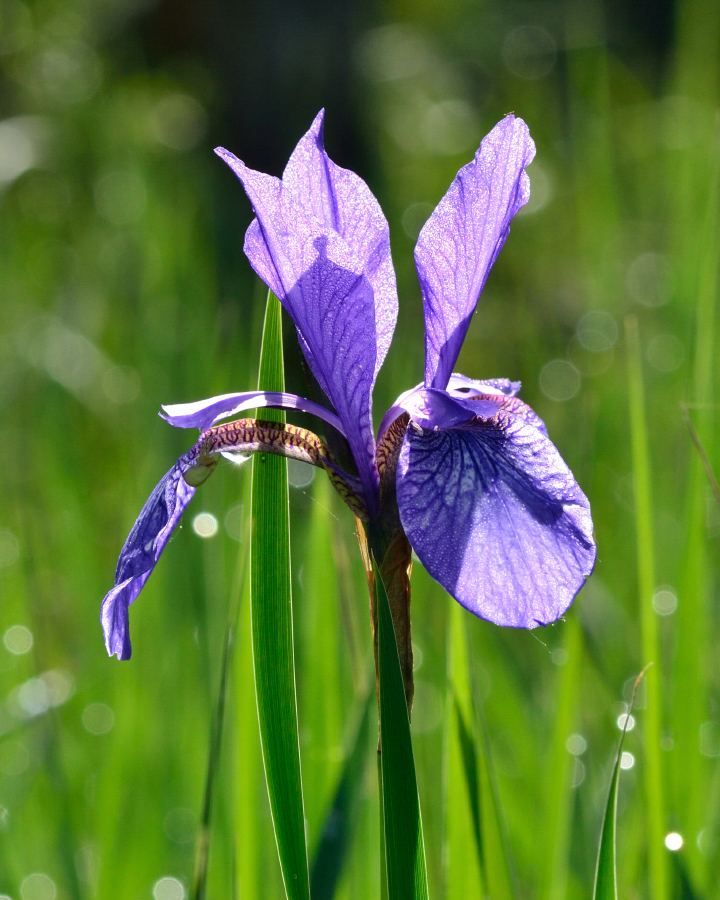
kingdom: Plantae
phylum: Tracheophyta
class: Liliopsida
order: Asparagales
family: Iridaceae
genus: Iris
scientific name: Iris sibirica
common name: Siberian iris
